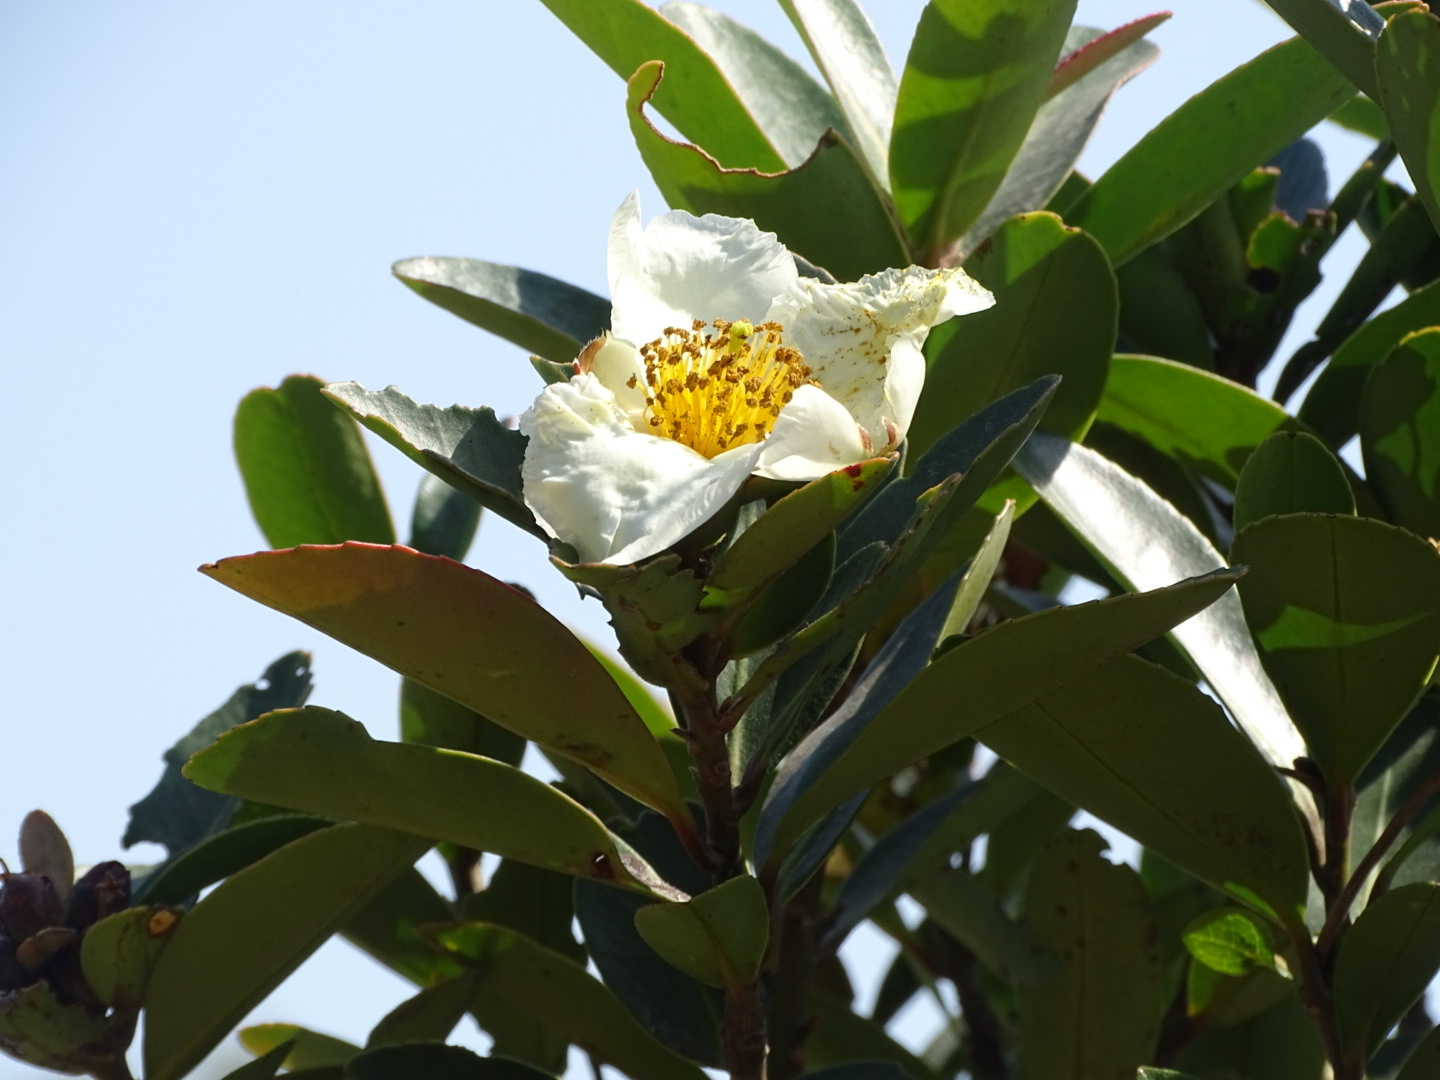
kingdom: Plantae
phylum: Tracheophyta
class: Magnoliopsida
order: Ericales
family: Theaceae
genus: Polyspora
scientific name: Polyspora axillaris
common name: Fried egg tree
